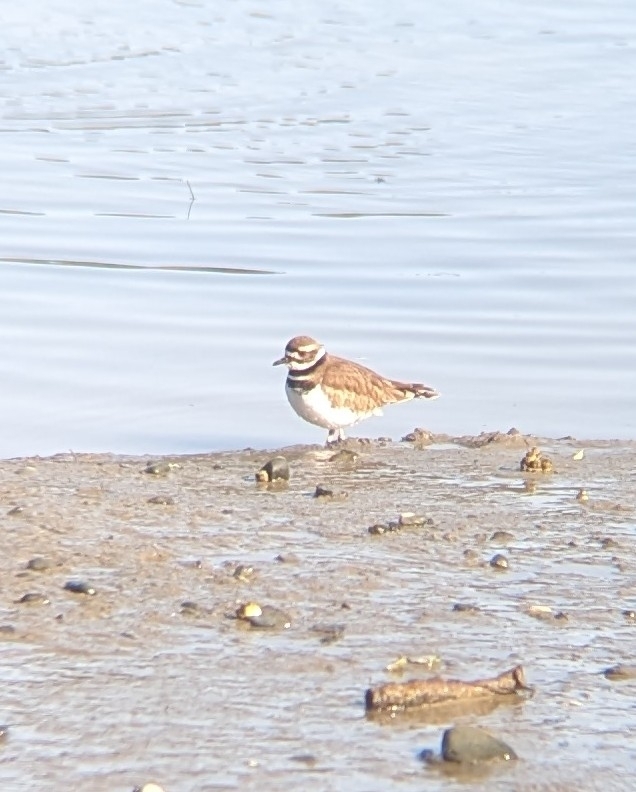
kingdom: Animalia
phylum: Chordata
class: Aves
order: Charadriiformes
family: Charadriidae
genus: Charadrius
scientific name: Charadrius vociferus
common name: Killdeer
